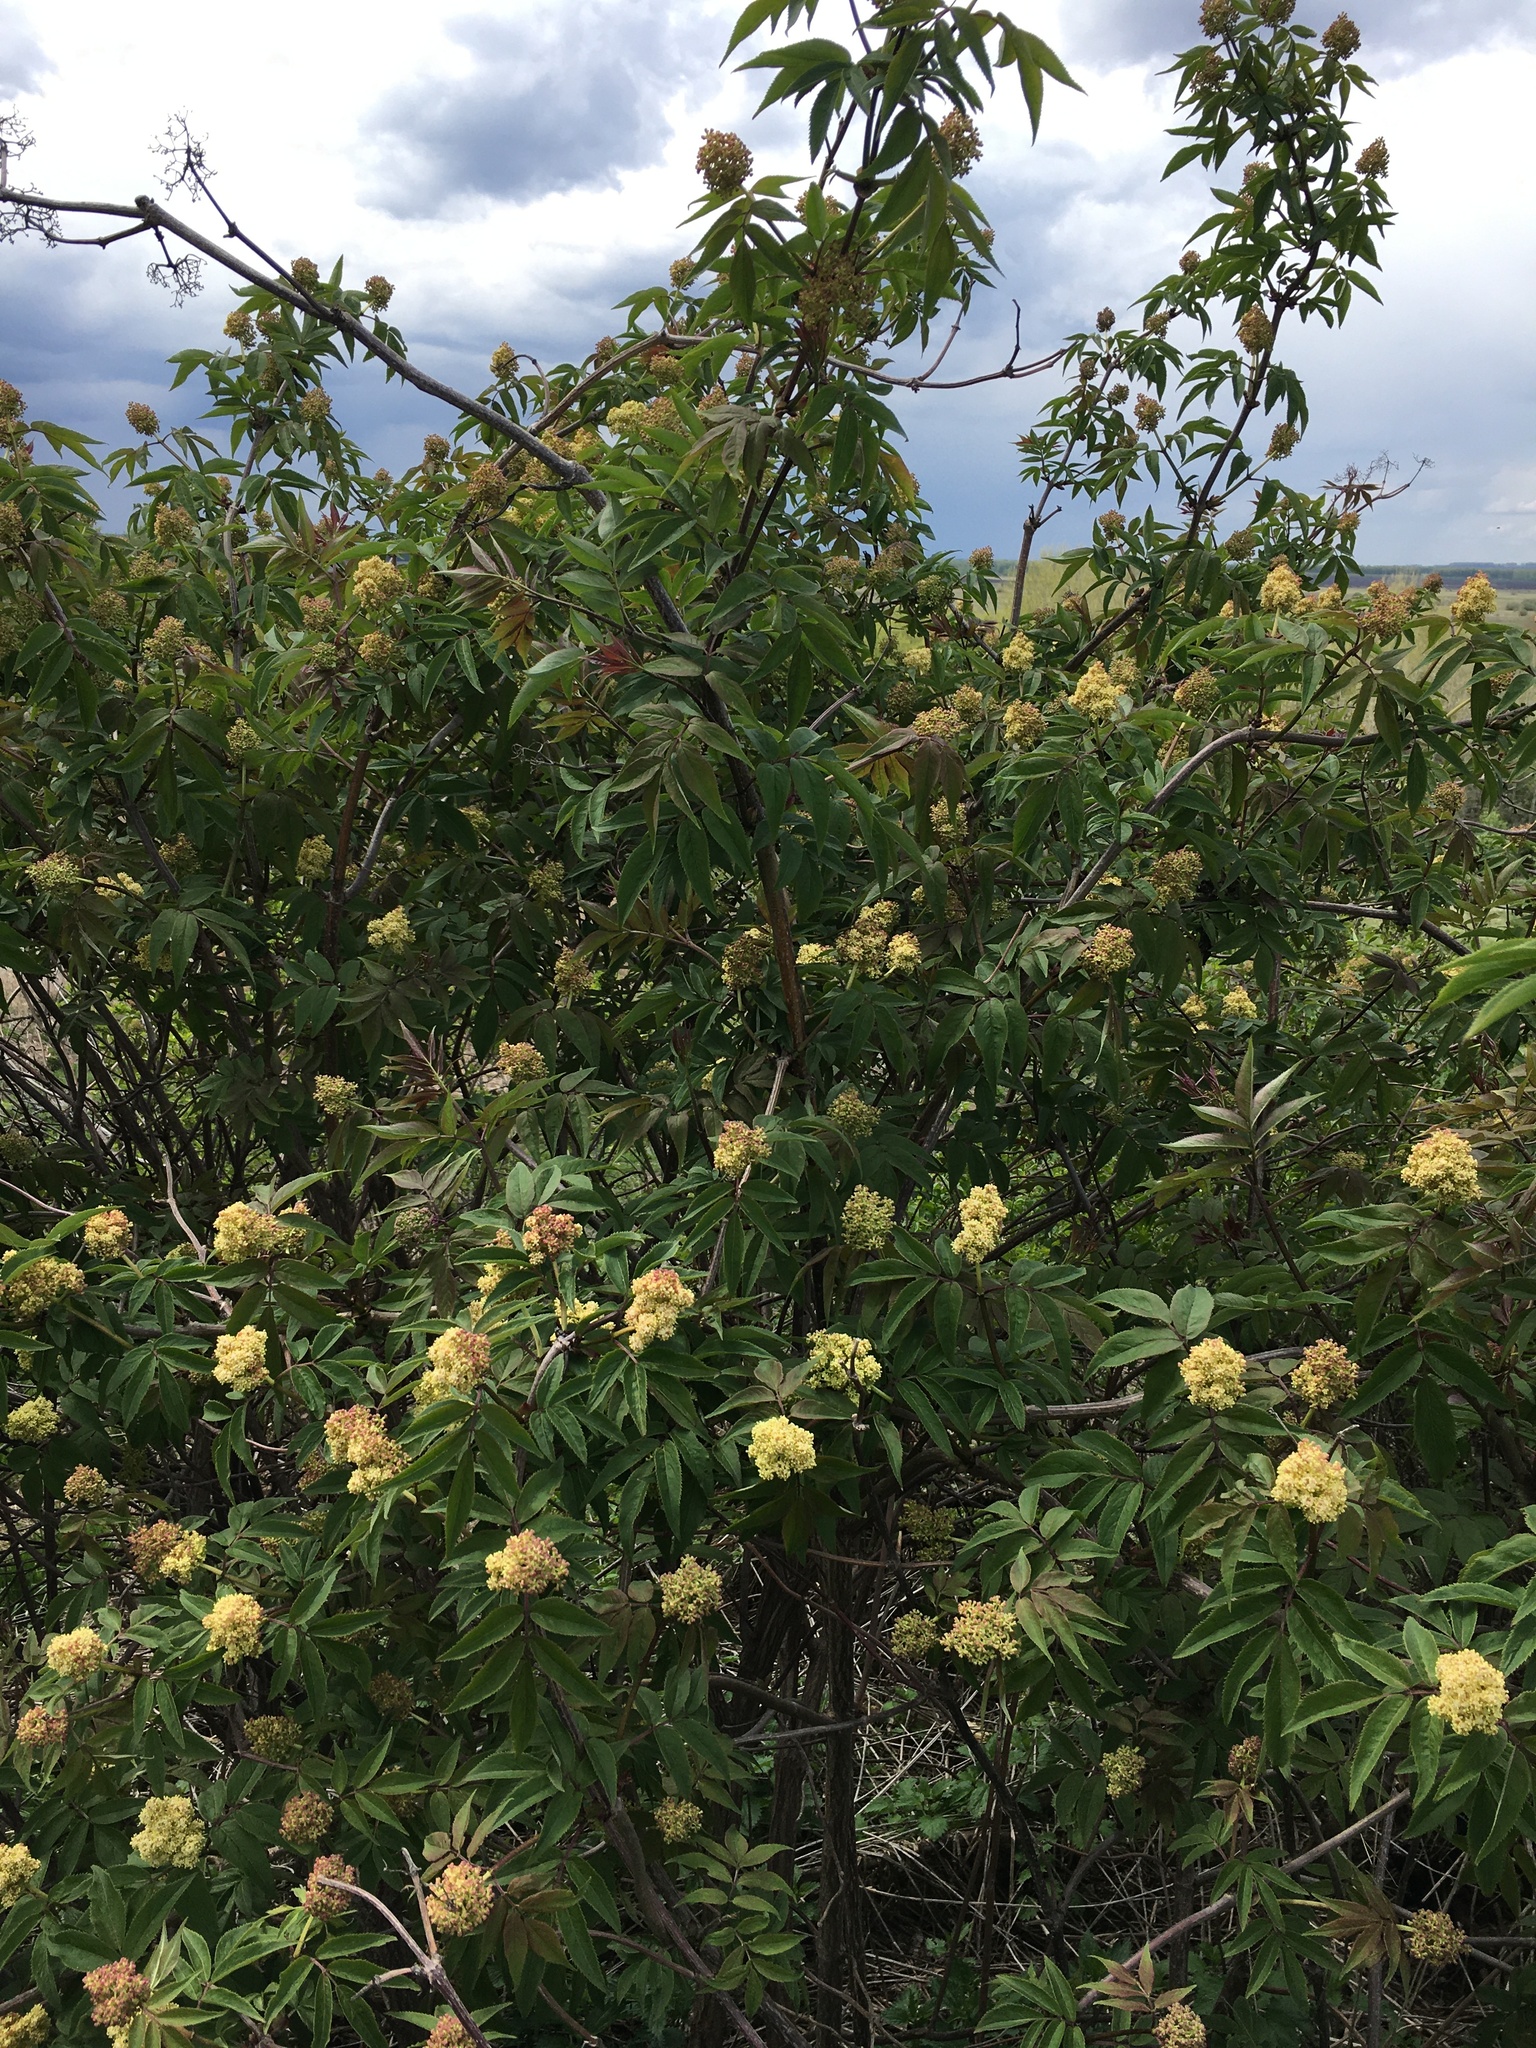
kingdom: Plantae
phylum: Tracheophyta
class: Magnoliopsida
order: Dipsacales
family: Viburnaceae
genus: Sambucus
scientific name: Sambucus racemosa
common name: Red-berried elder
